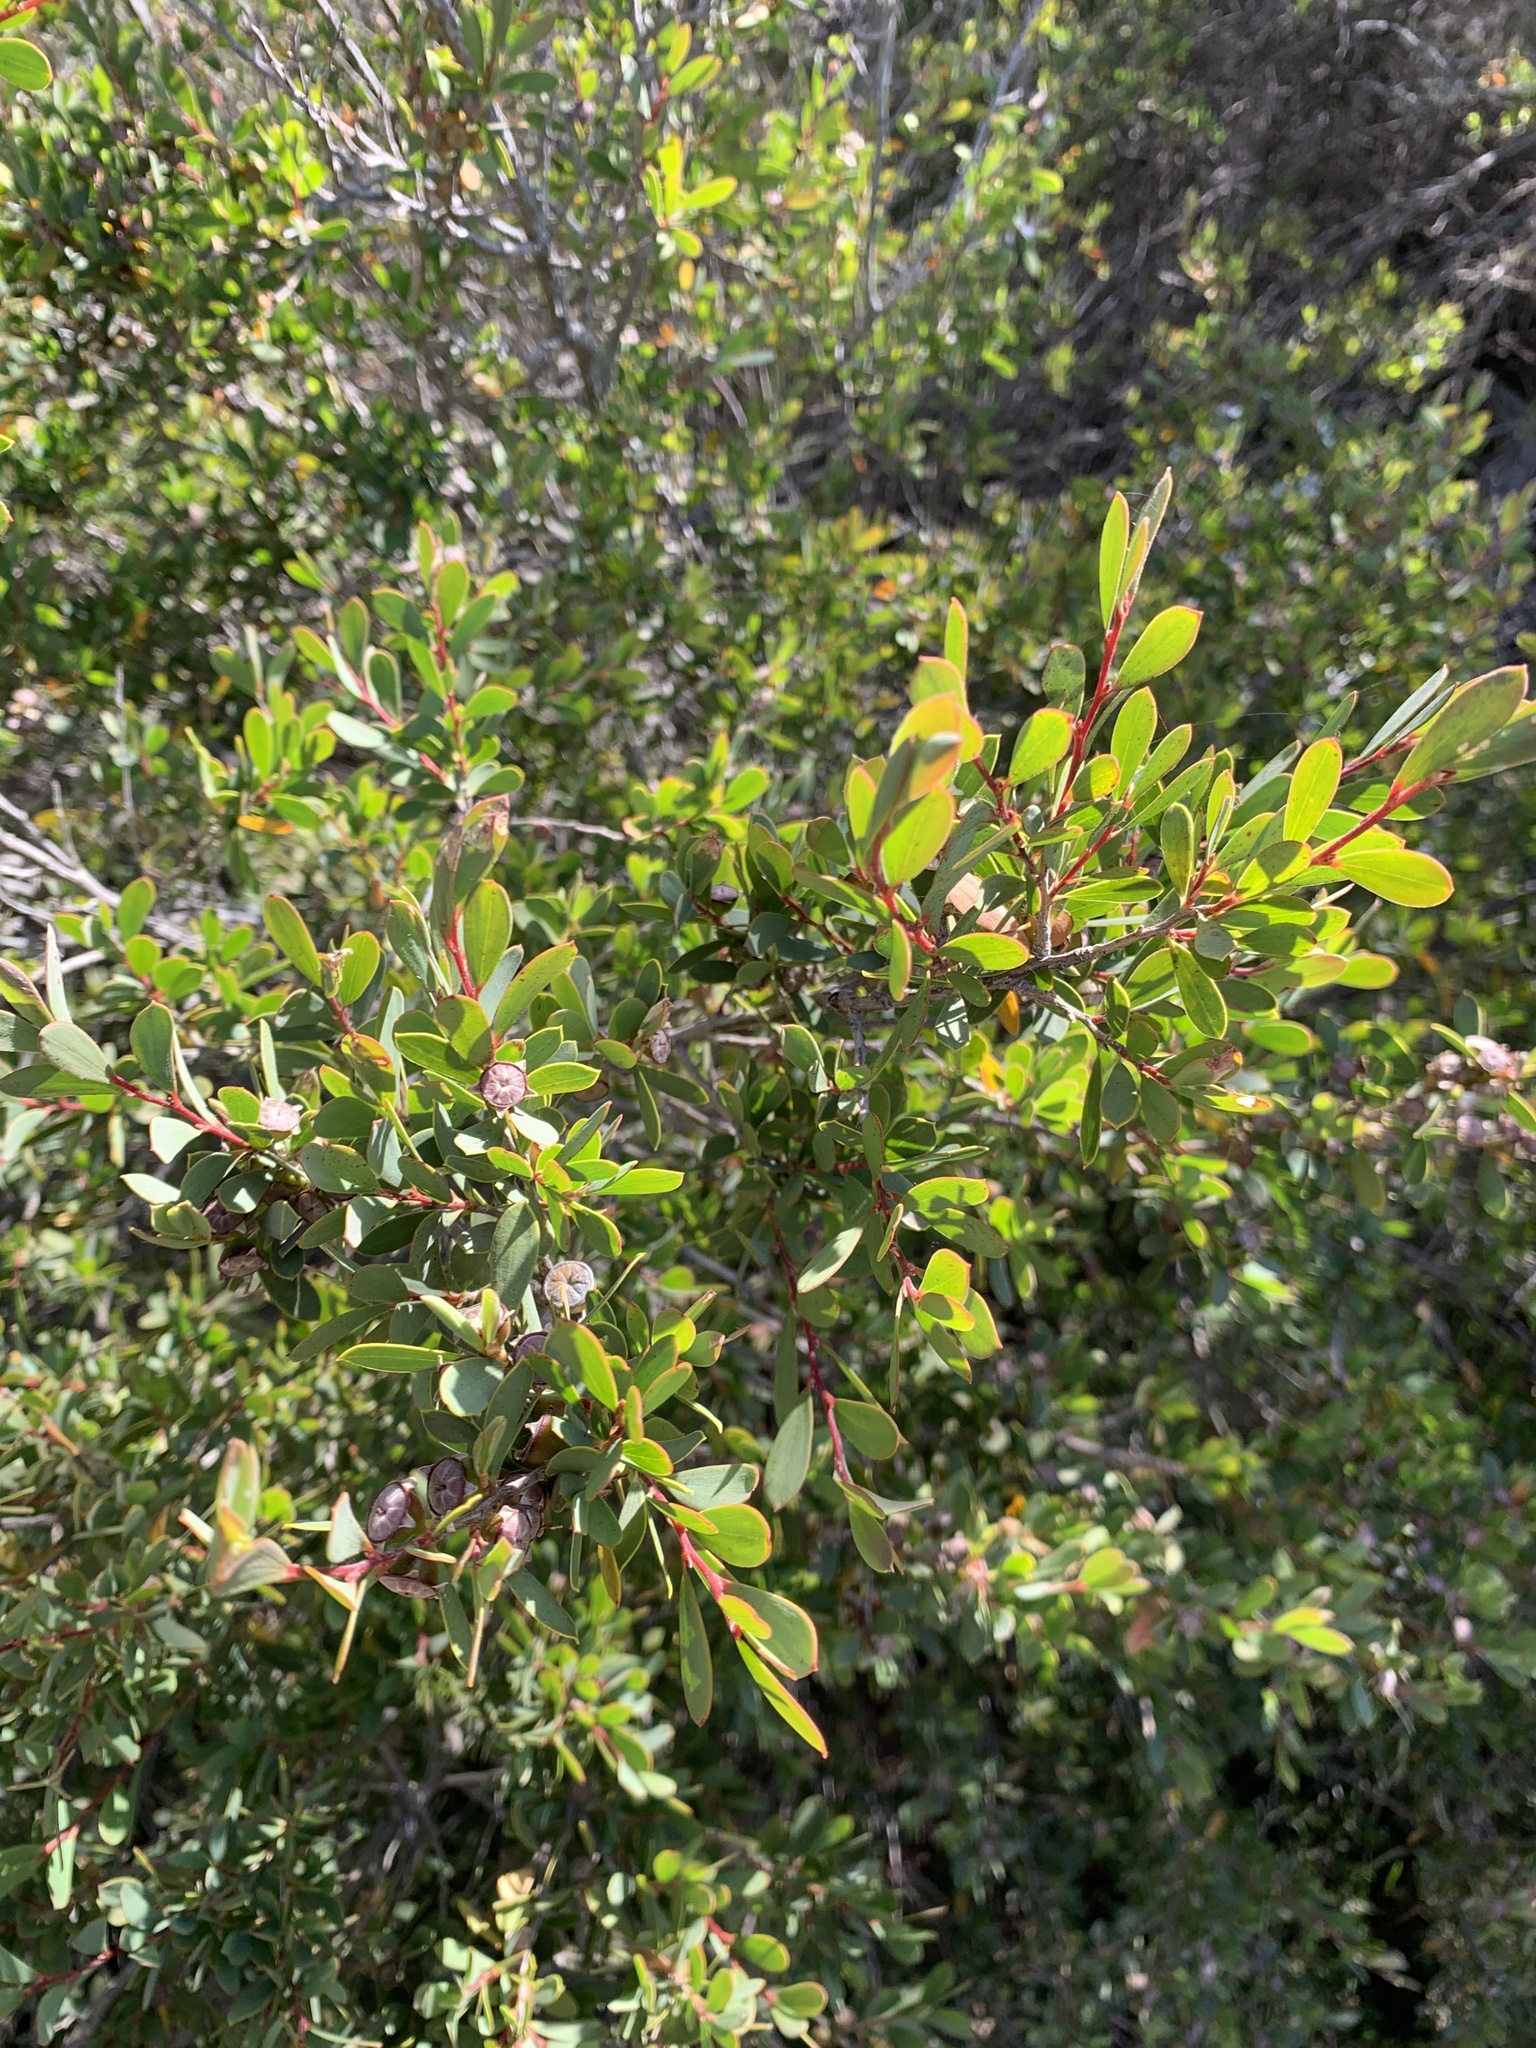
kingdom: Plantae
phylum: Tracheophyta
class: Magnoliopsida
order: Myrtales
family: Myrtaceae
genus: Leptospermum
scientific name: Leptospermum laevigatum
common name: Australian teatree
